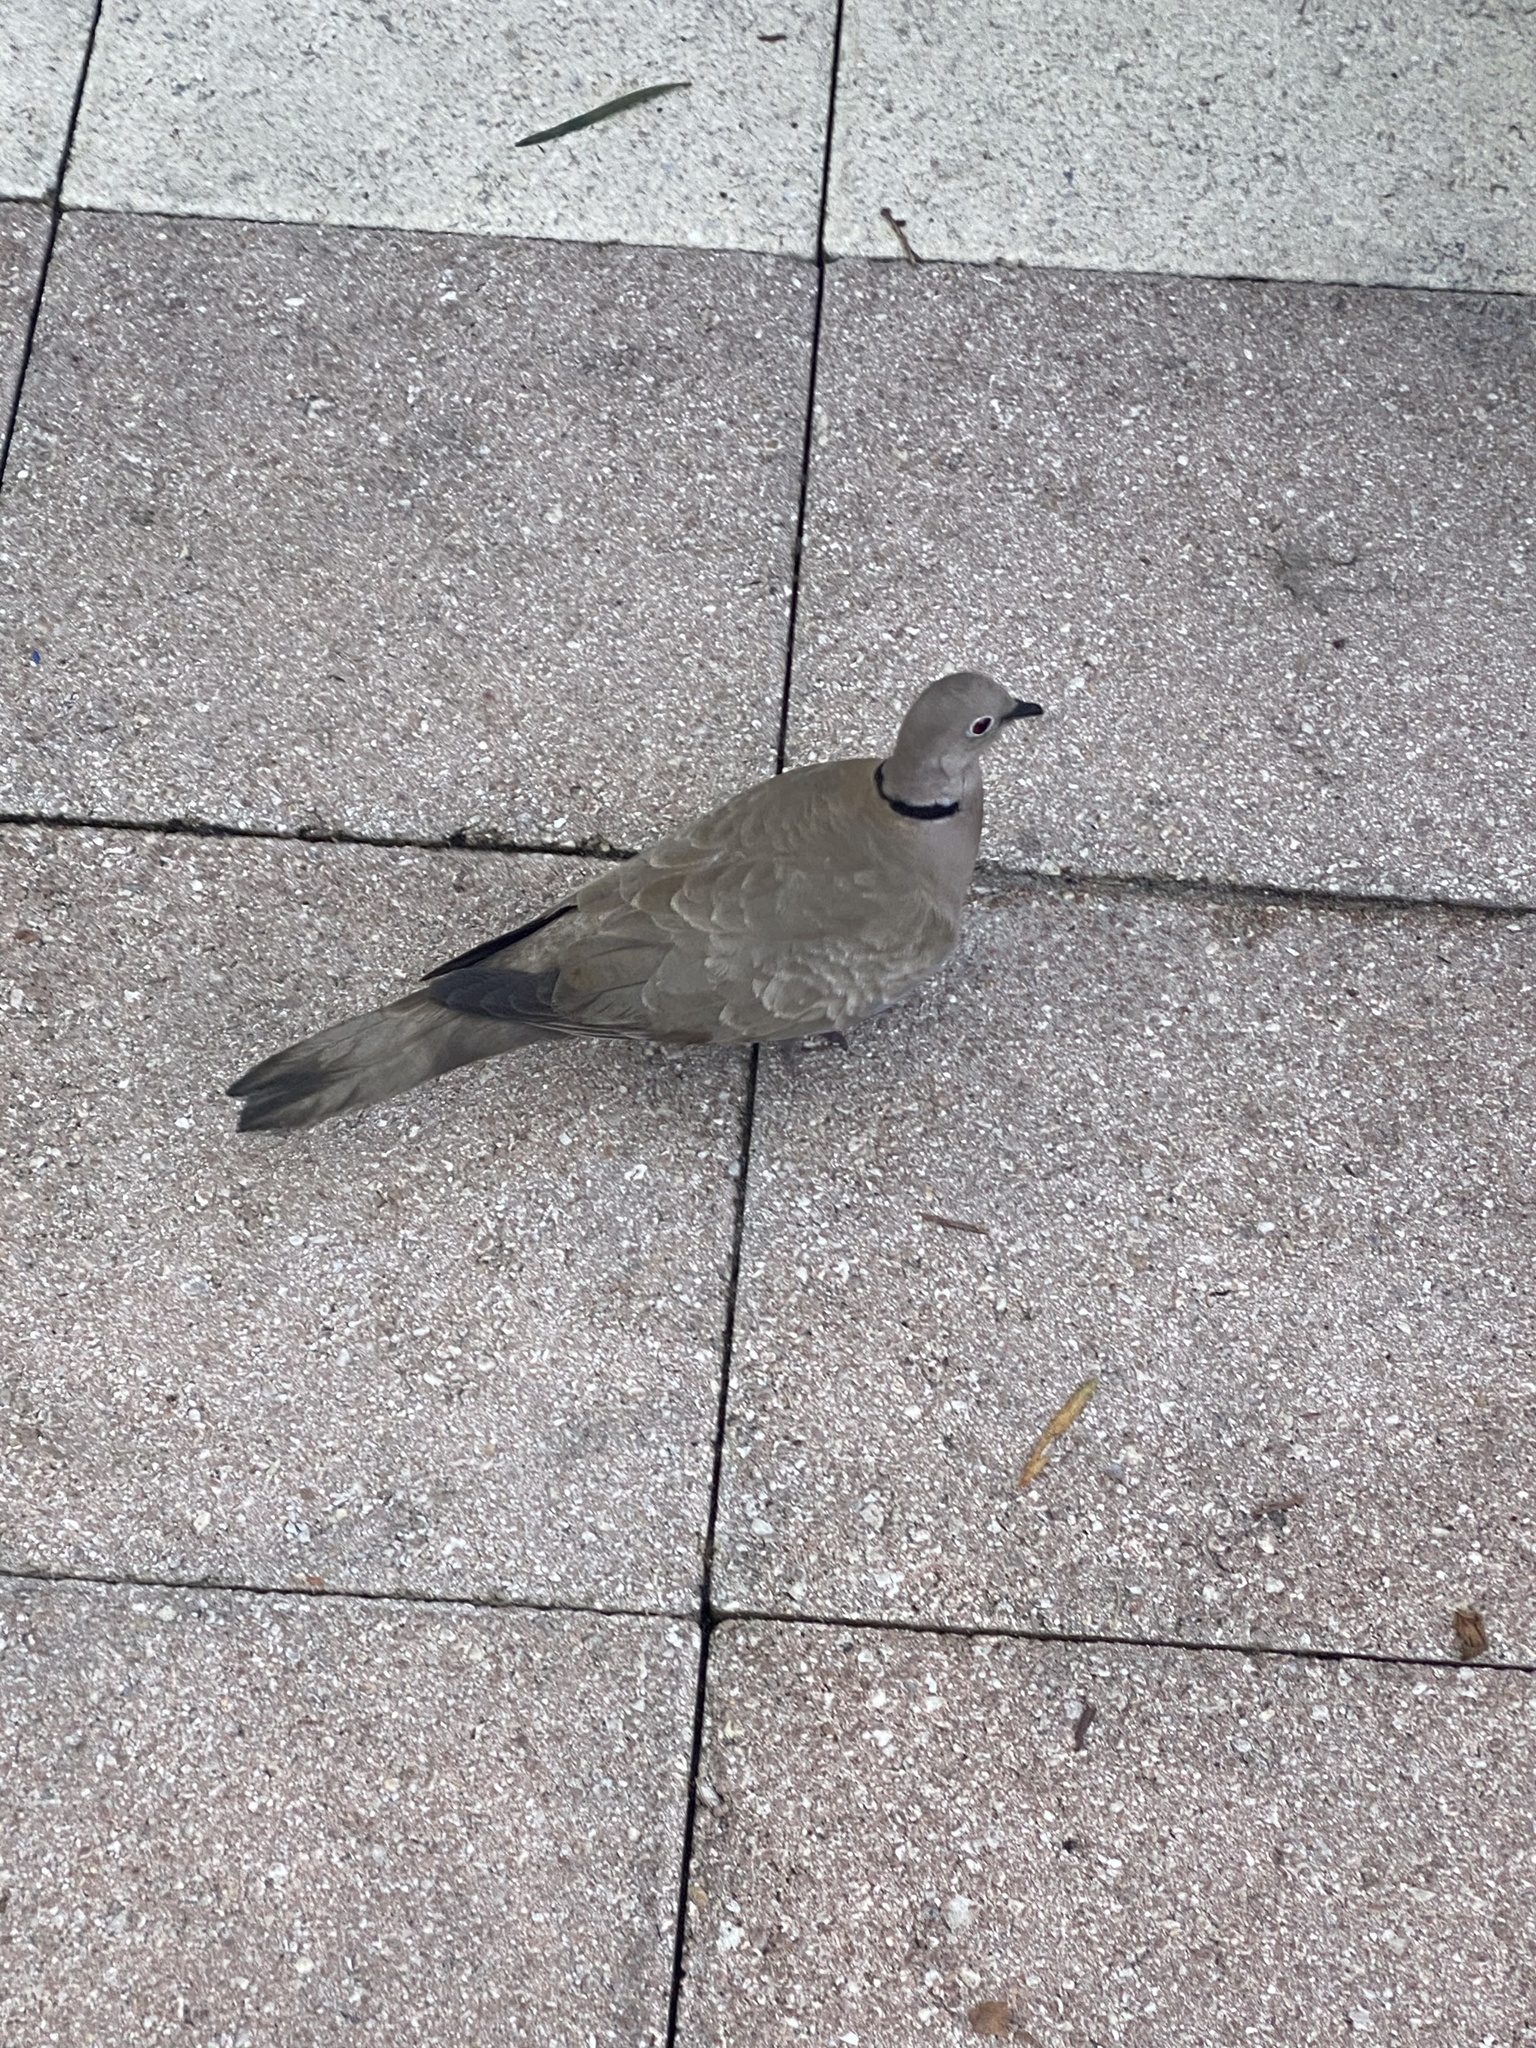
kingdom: Animalia
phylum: Chordata
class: Aves
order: Columbiformes
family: Columbidae
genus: Streptopelia
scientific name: Streptopelia decaocto
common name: Eurasian collared dove
